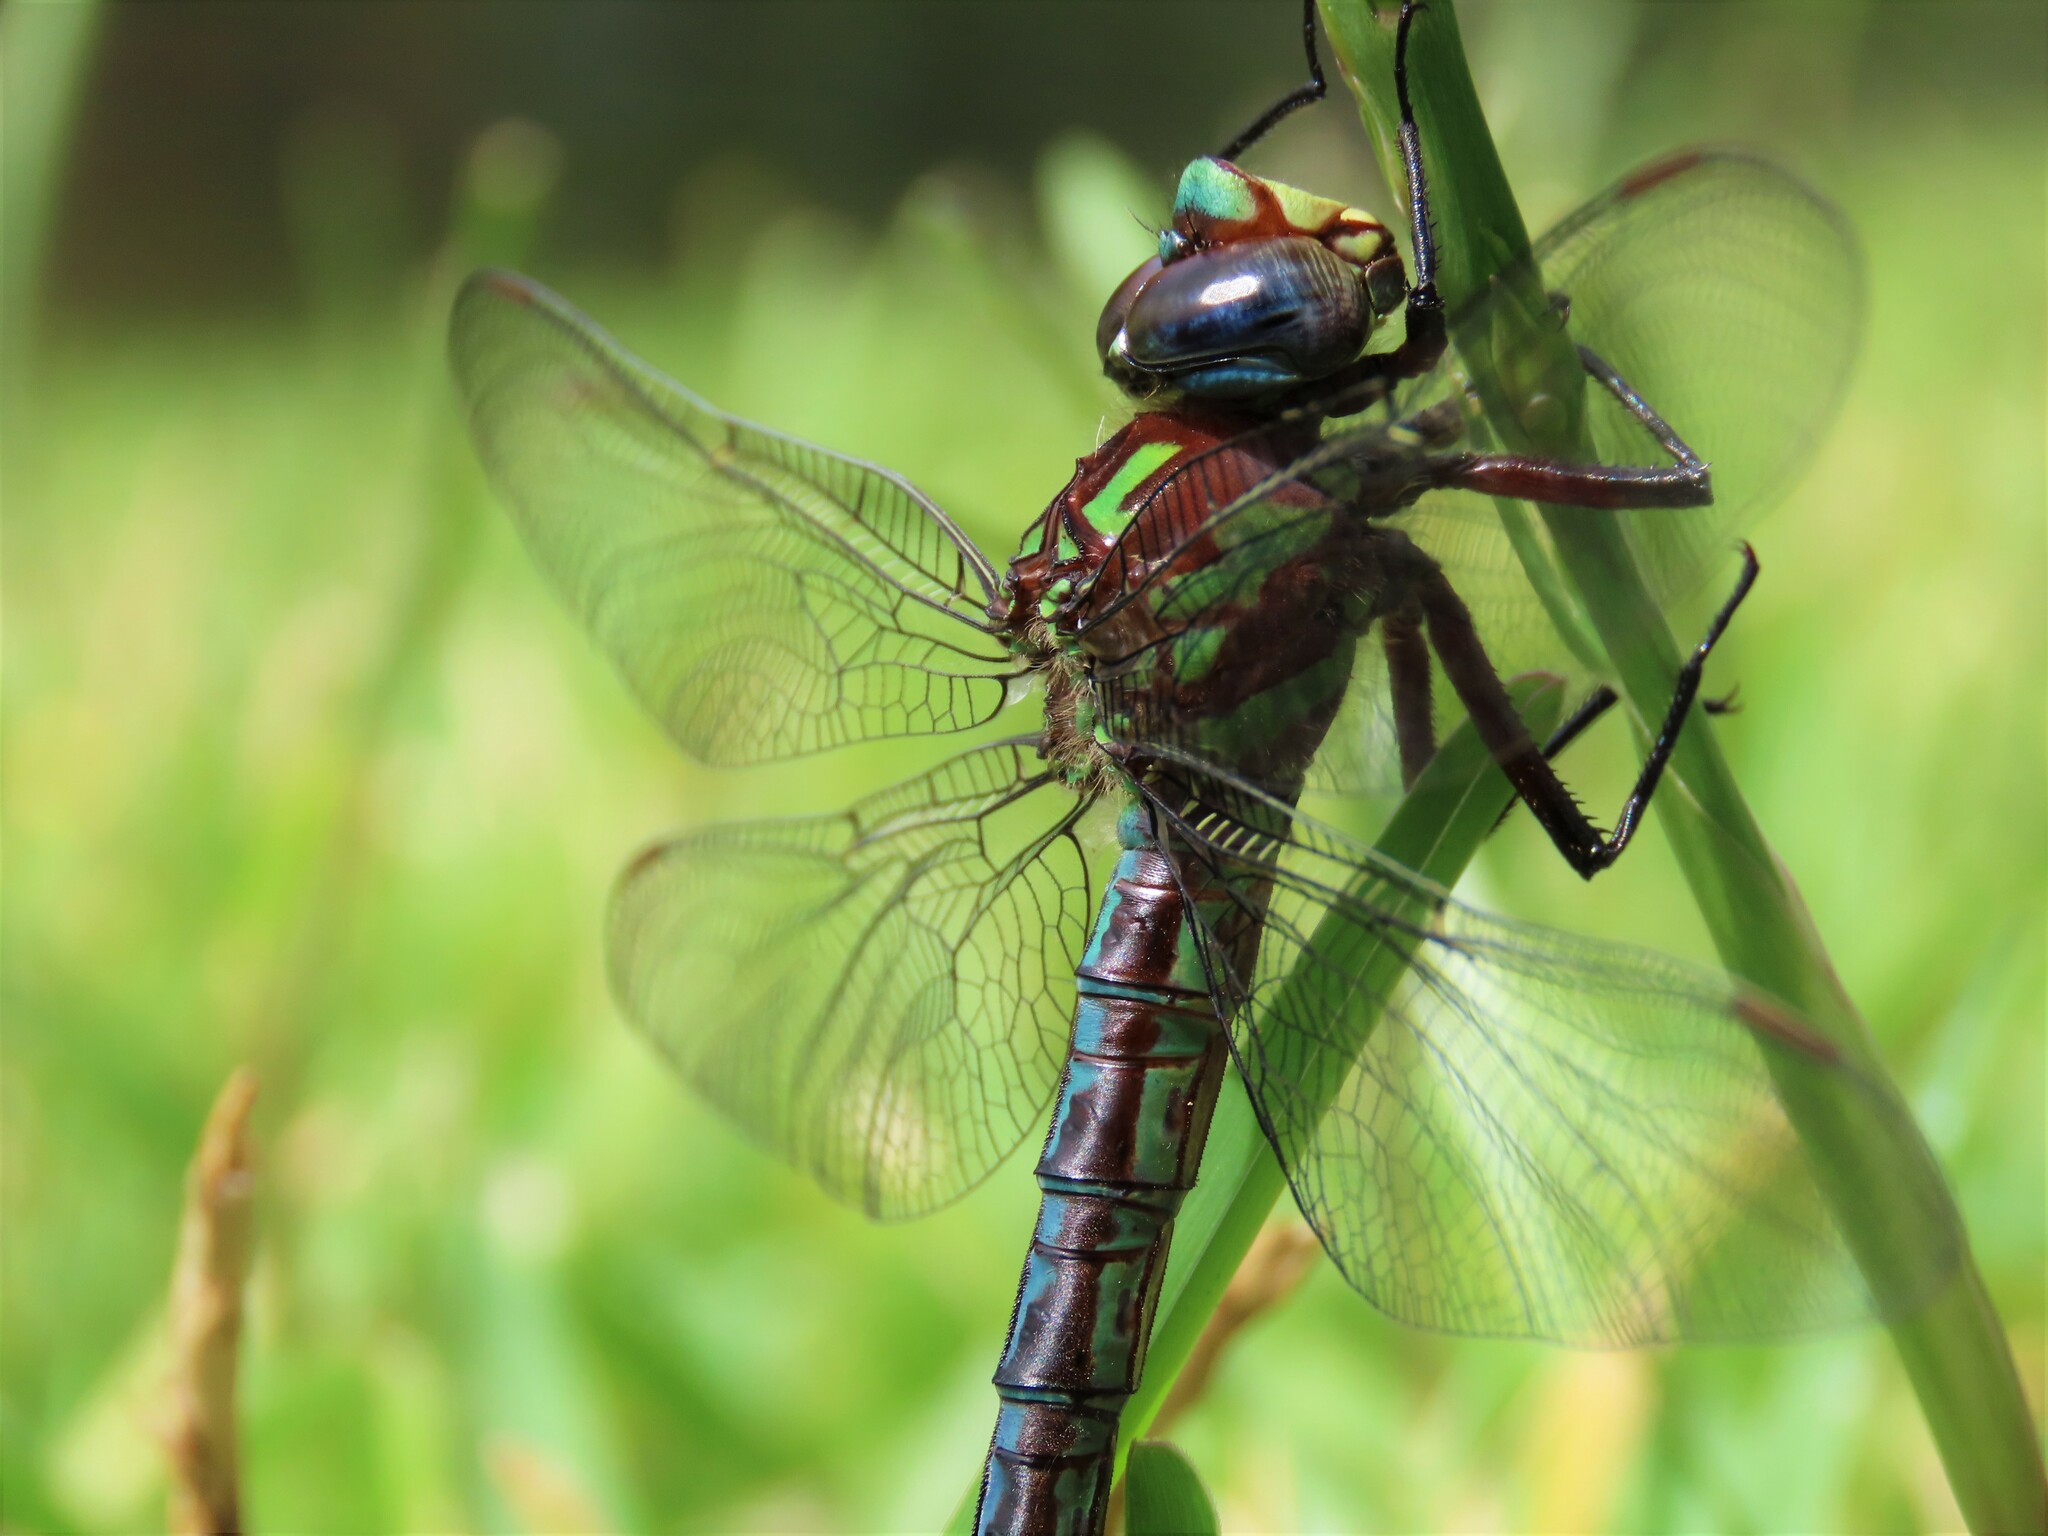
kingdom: Animalia
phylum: Arthropoda
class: Insecta
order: Odonata
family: Aeshnidae
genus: Nasiaeschna
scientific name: Nasiaeschna pentacantha
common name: Cyrano darner
